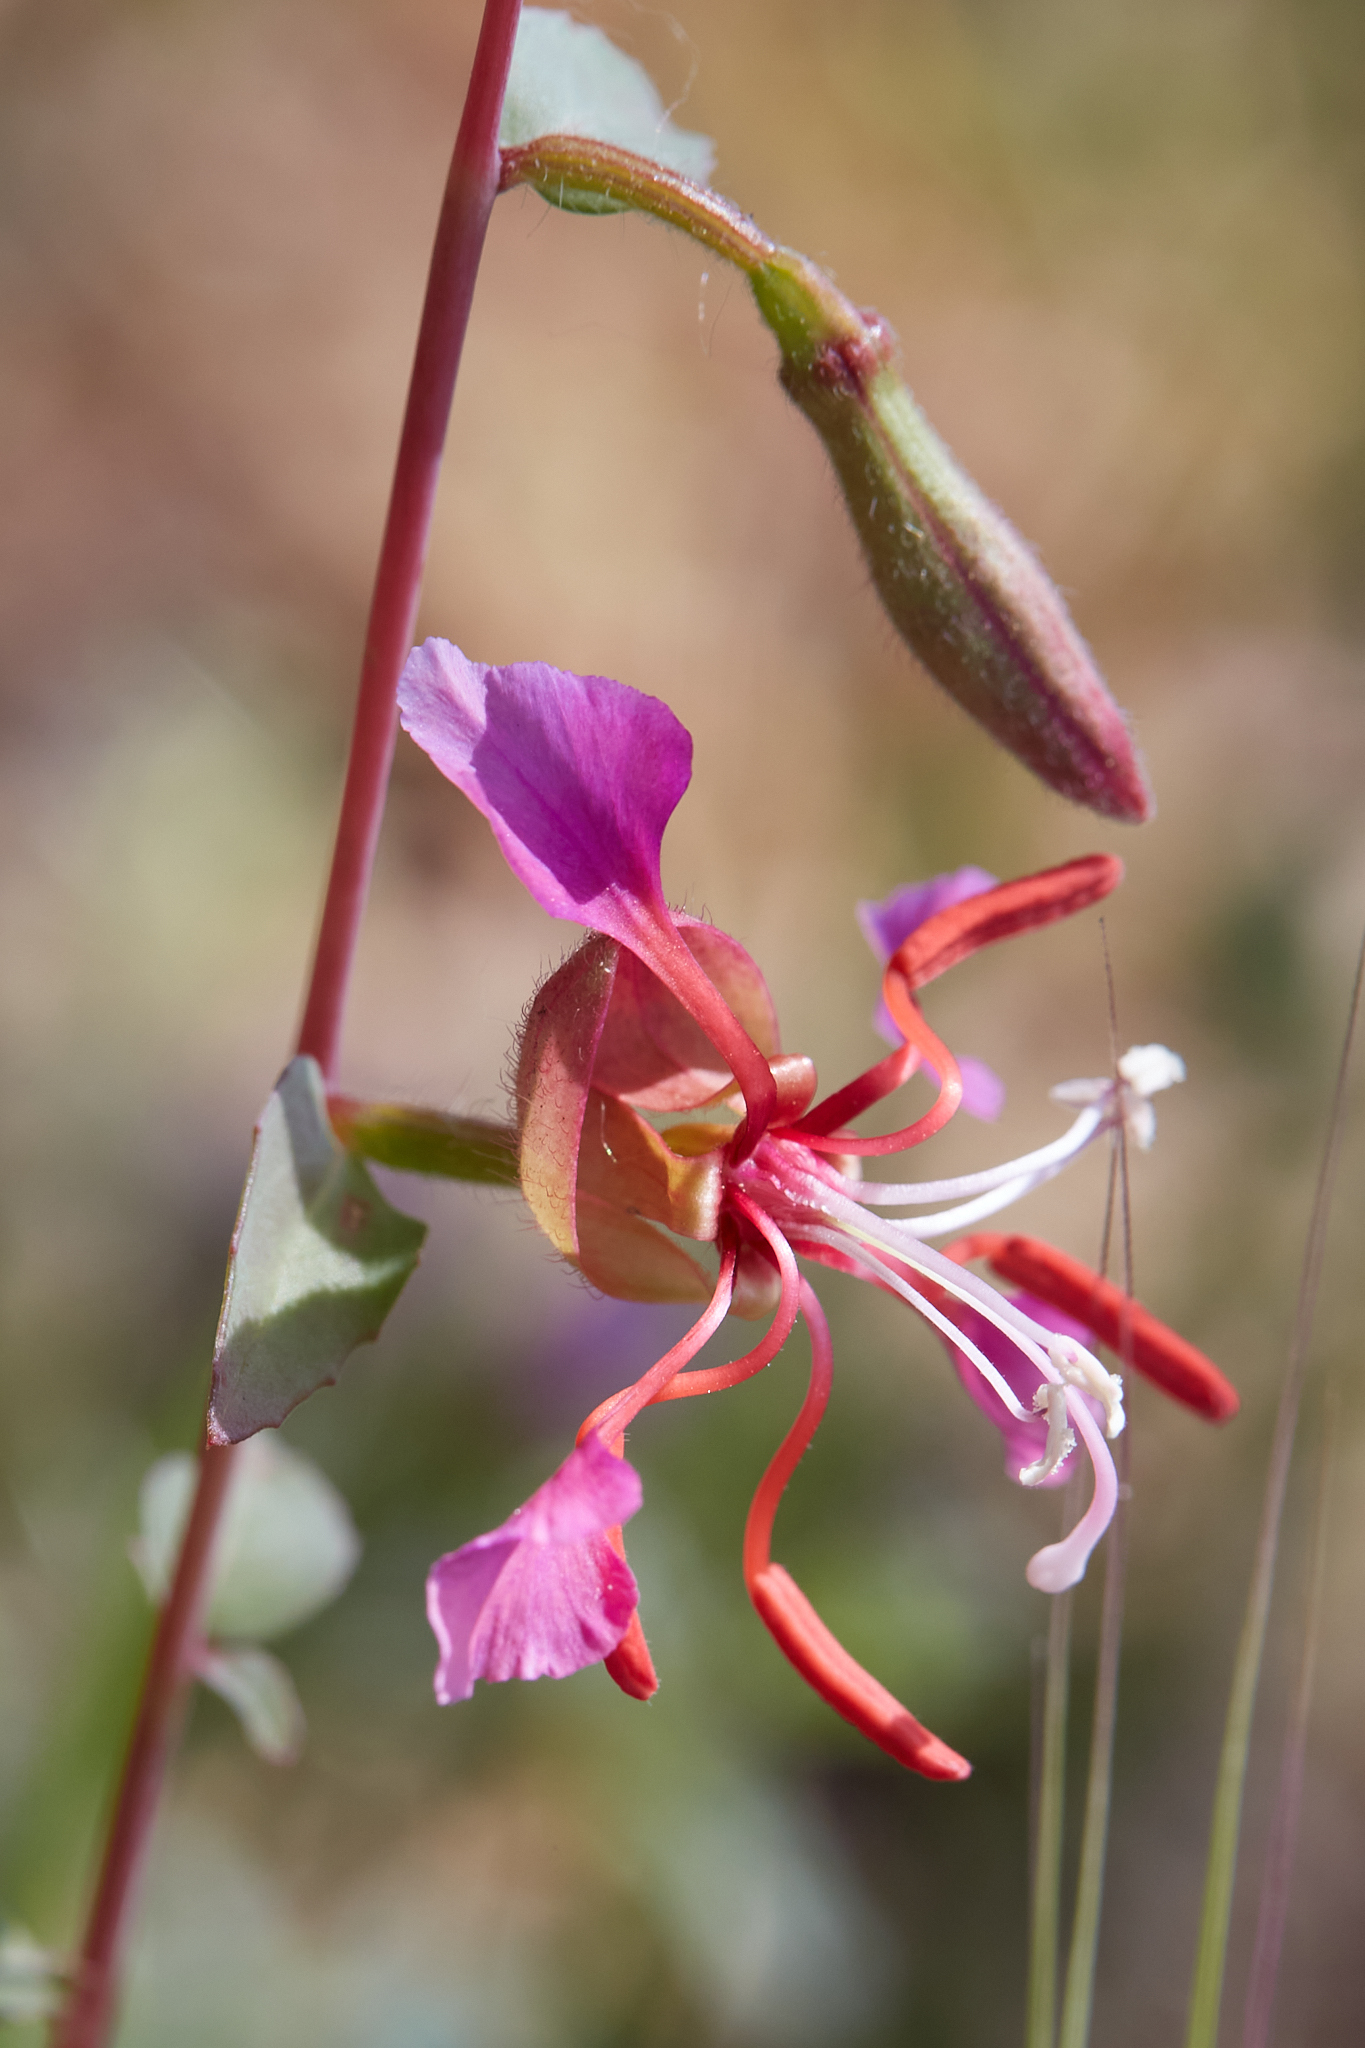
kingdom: Plantae
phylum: Tracheophyta
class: Magnoliopsida
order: Myrtales
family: Onagraceae
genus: Clarkia
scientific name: Clarkia unguiculata
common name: Clarkia
